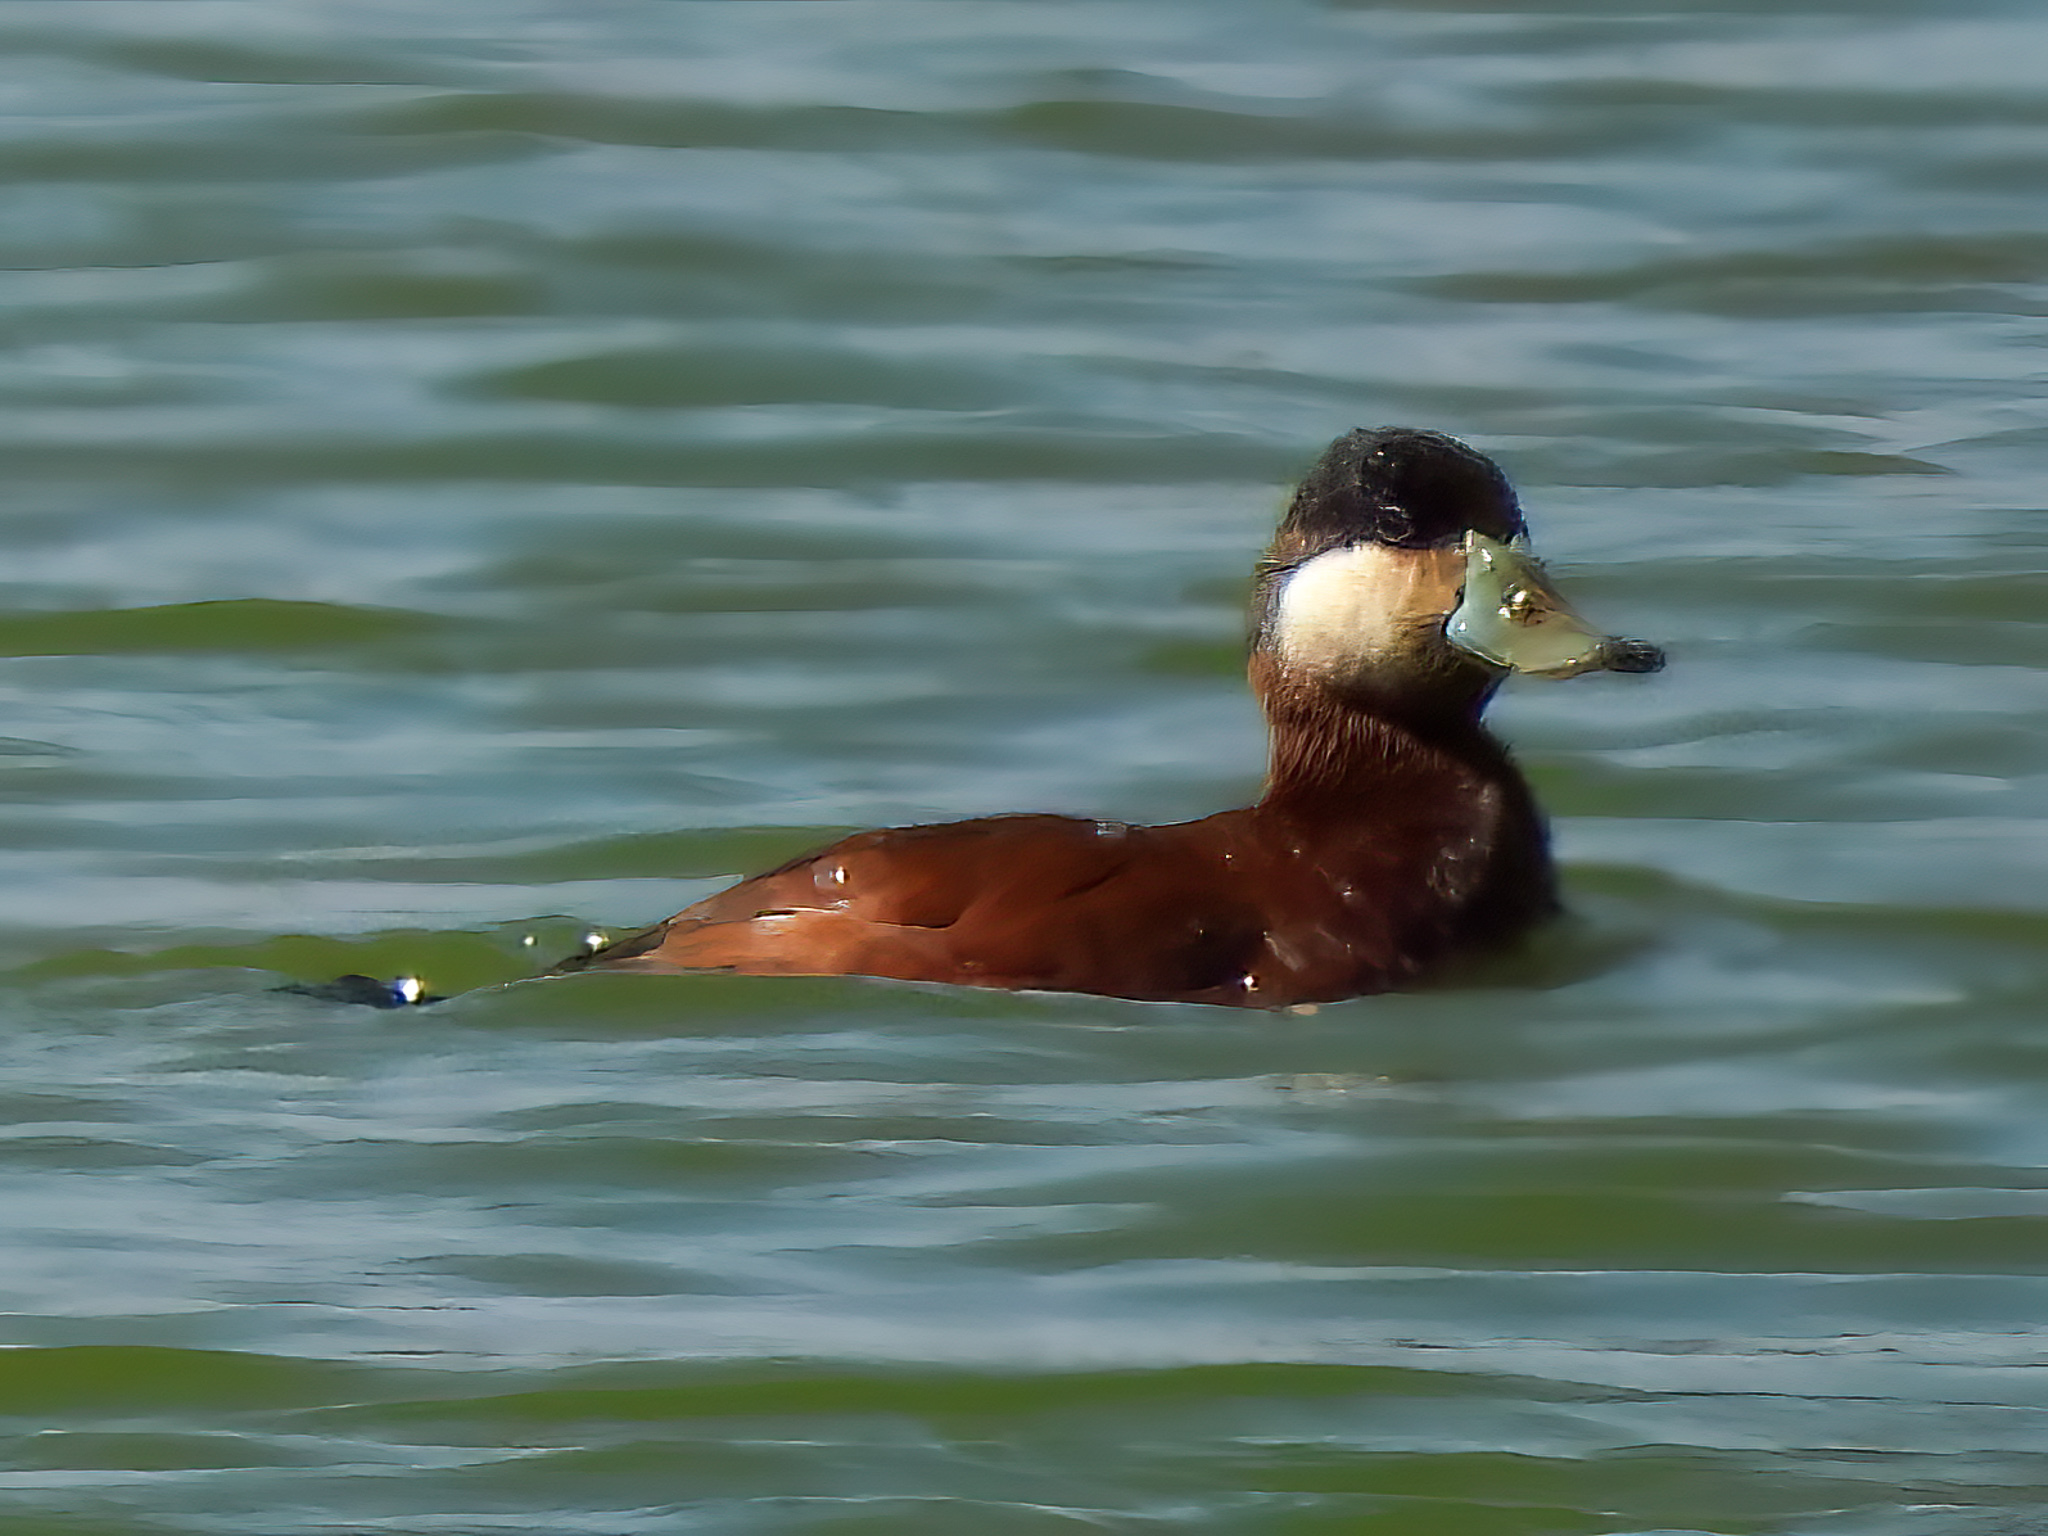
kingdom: Animalia
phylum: Chordata
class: Aves
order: Anseriformes
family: Anatidae
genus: Oxyura
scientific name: Oxyura jamaicensis
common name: Ruddy duck
